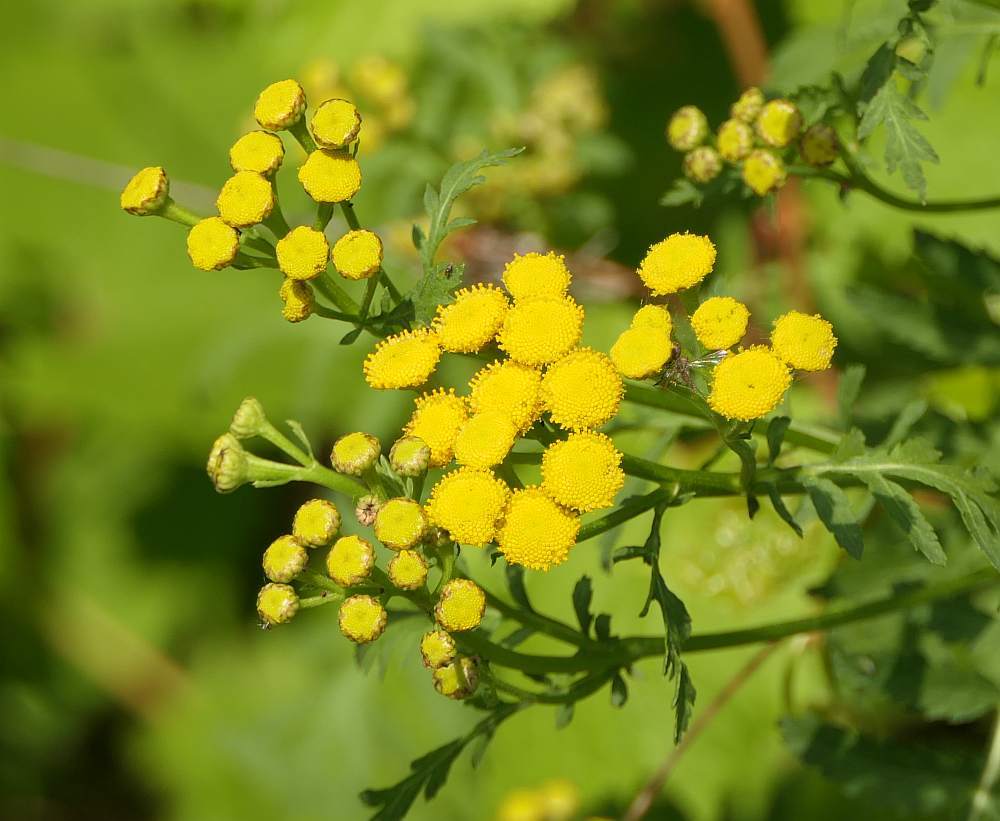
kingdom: Plantae
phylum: Tracheophyta
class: Magnoliopsida
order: Asterales
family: Asteraceae
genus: Tanacetum
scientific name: Tanacetum vulgare
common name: Common tansy
